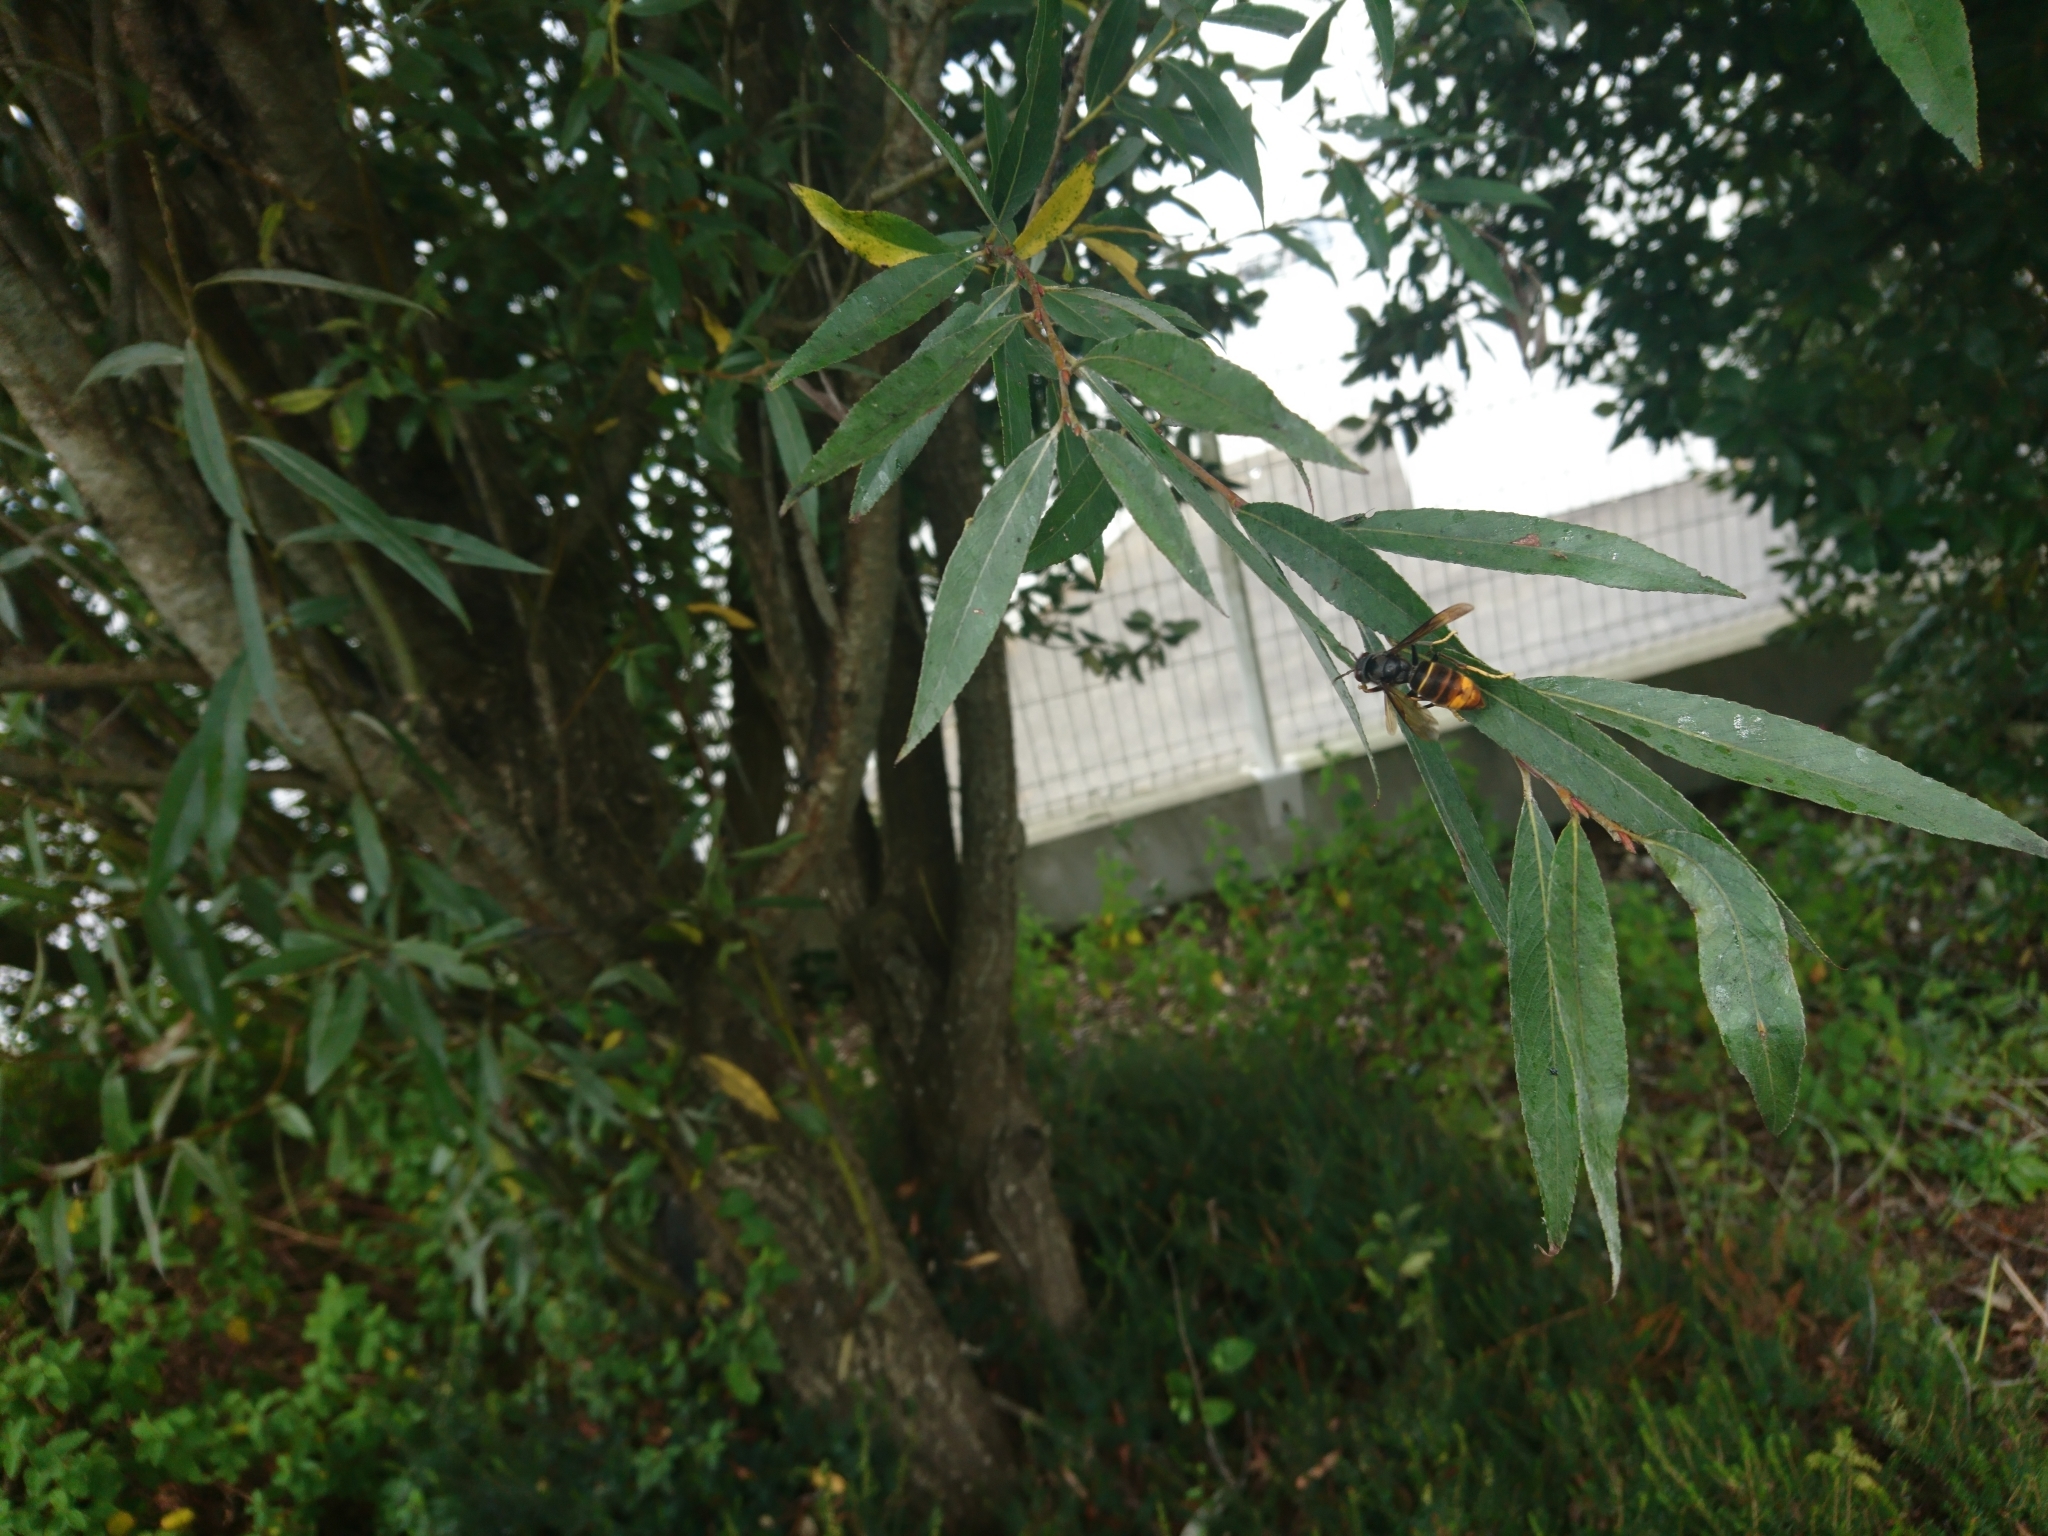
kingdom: Animalia
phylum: Arthropoda
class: Insecta
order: Hymenoptera
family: Vespidae
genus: Vespa
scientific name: Vespa velutina
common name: Asian hornet
